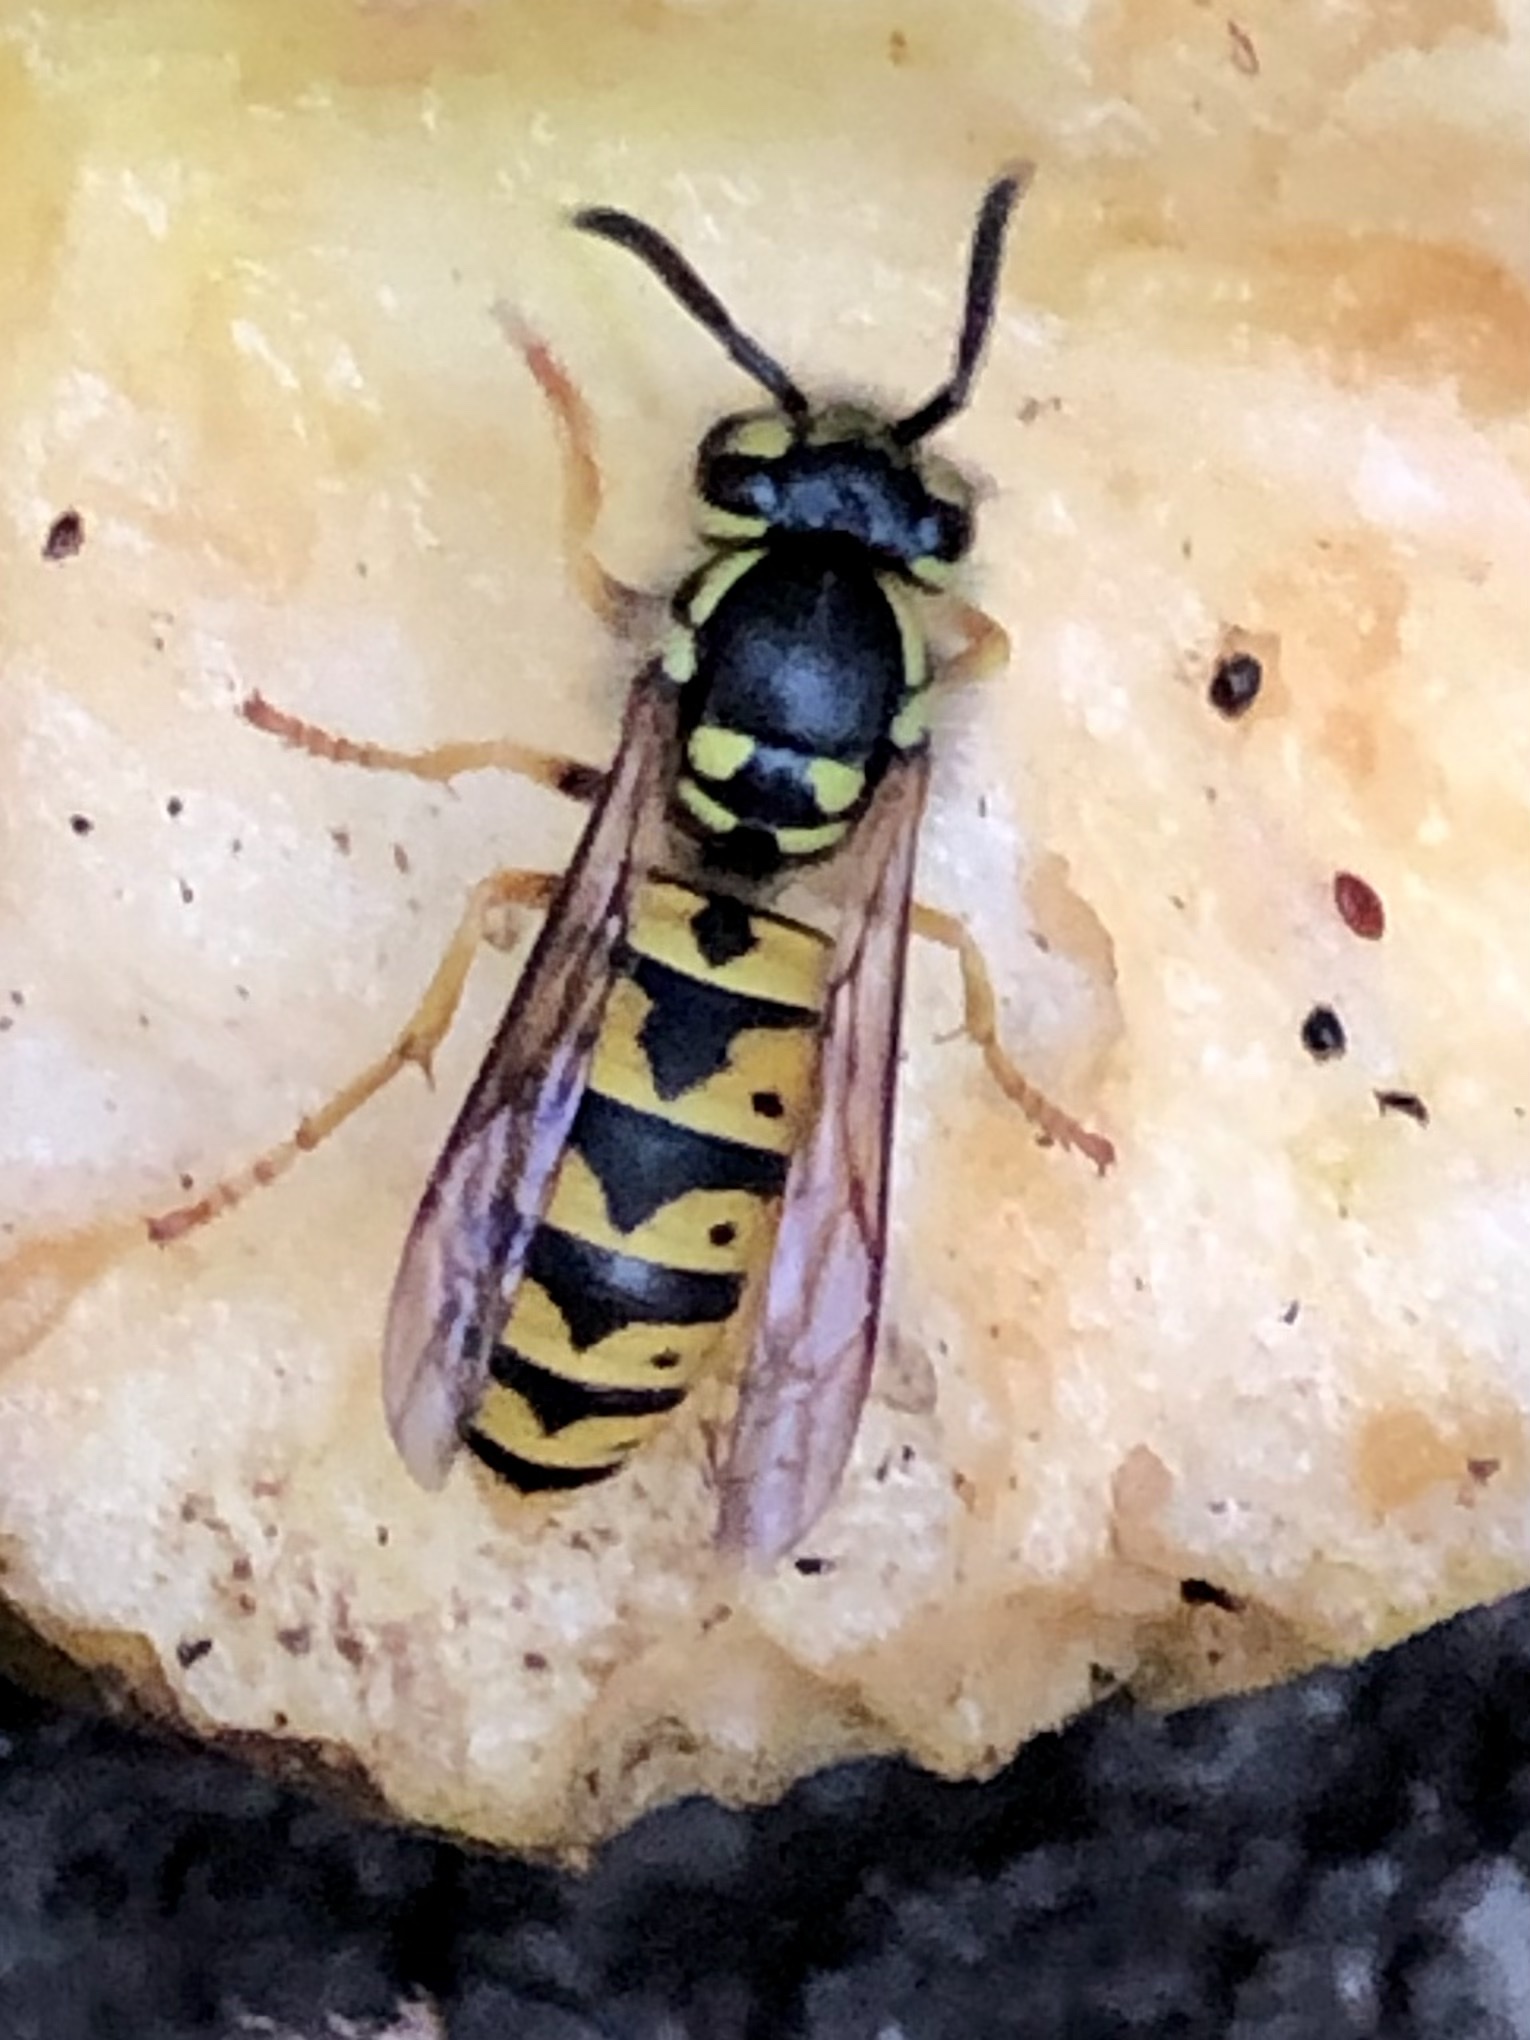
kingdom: Animalia
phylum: Arthropoda
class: Insecta
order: Hymenoptera
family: Vespidae
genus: Vespula
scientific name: Vespula germanica
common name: German wasp
